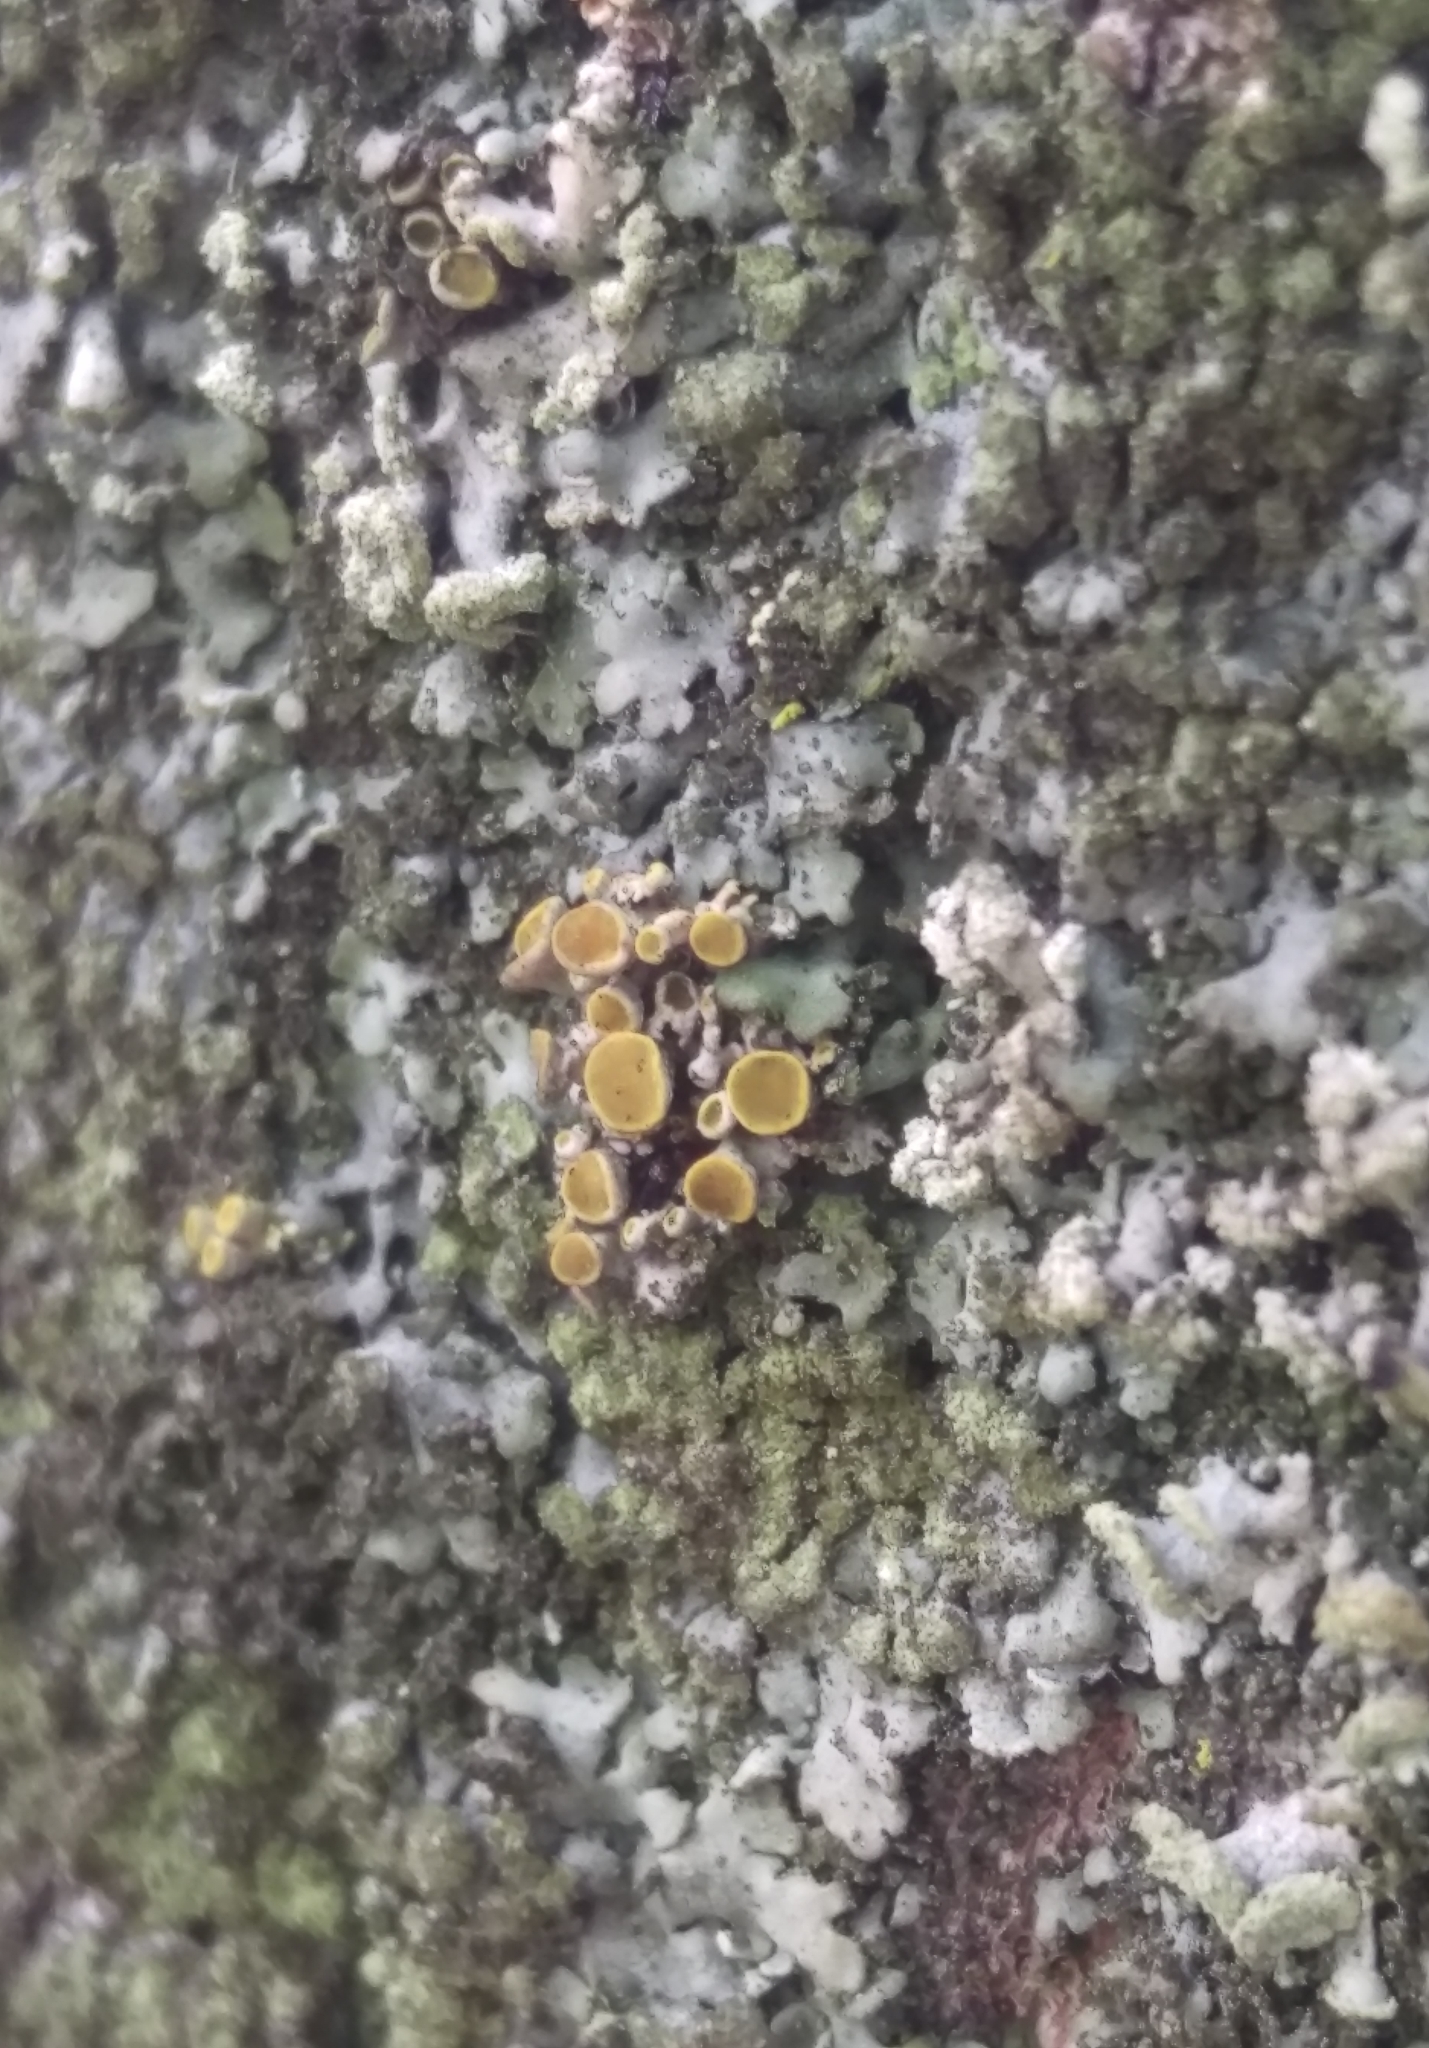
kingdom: Fungi
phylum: Ascomycota
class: Lecanoromycetes
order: Teloschistales
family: Teloschistaceae
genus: Polycauliona
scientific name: Polycauliona polycarpa
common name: Pin-cushion sunburst lichen
